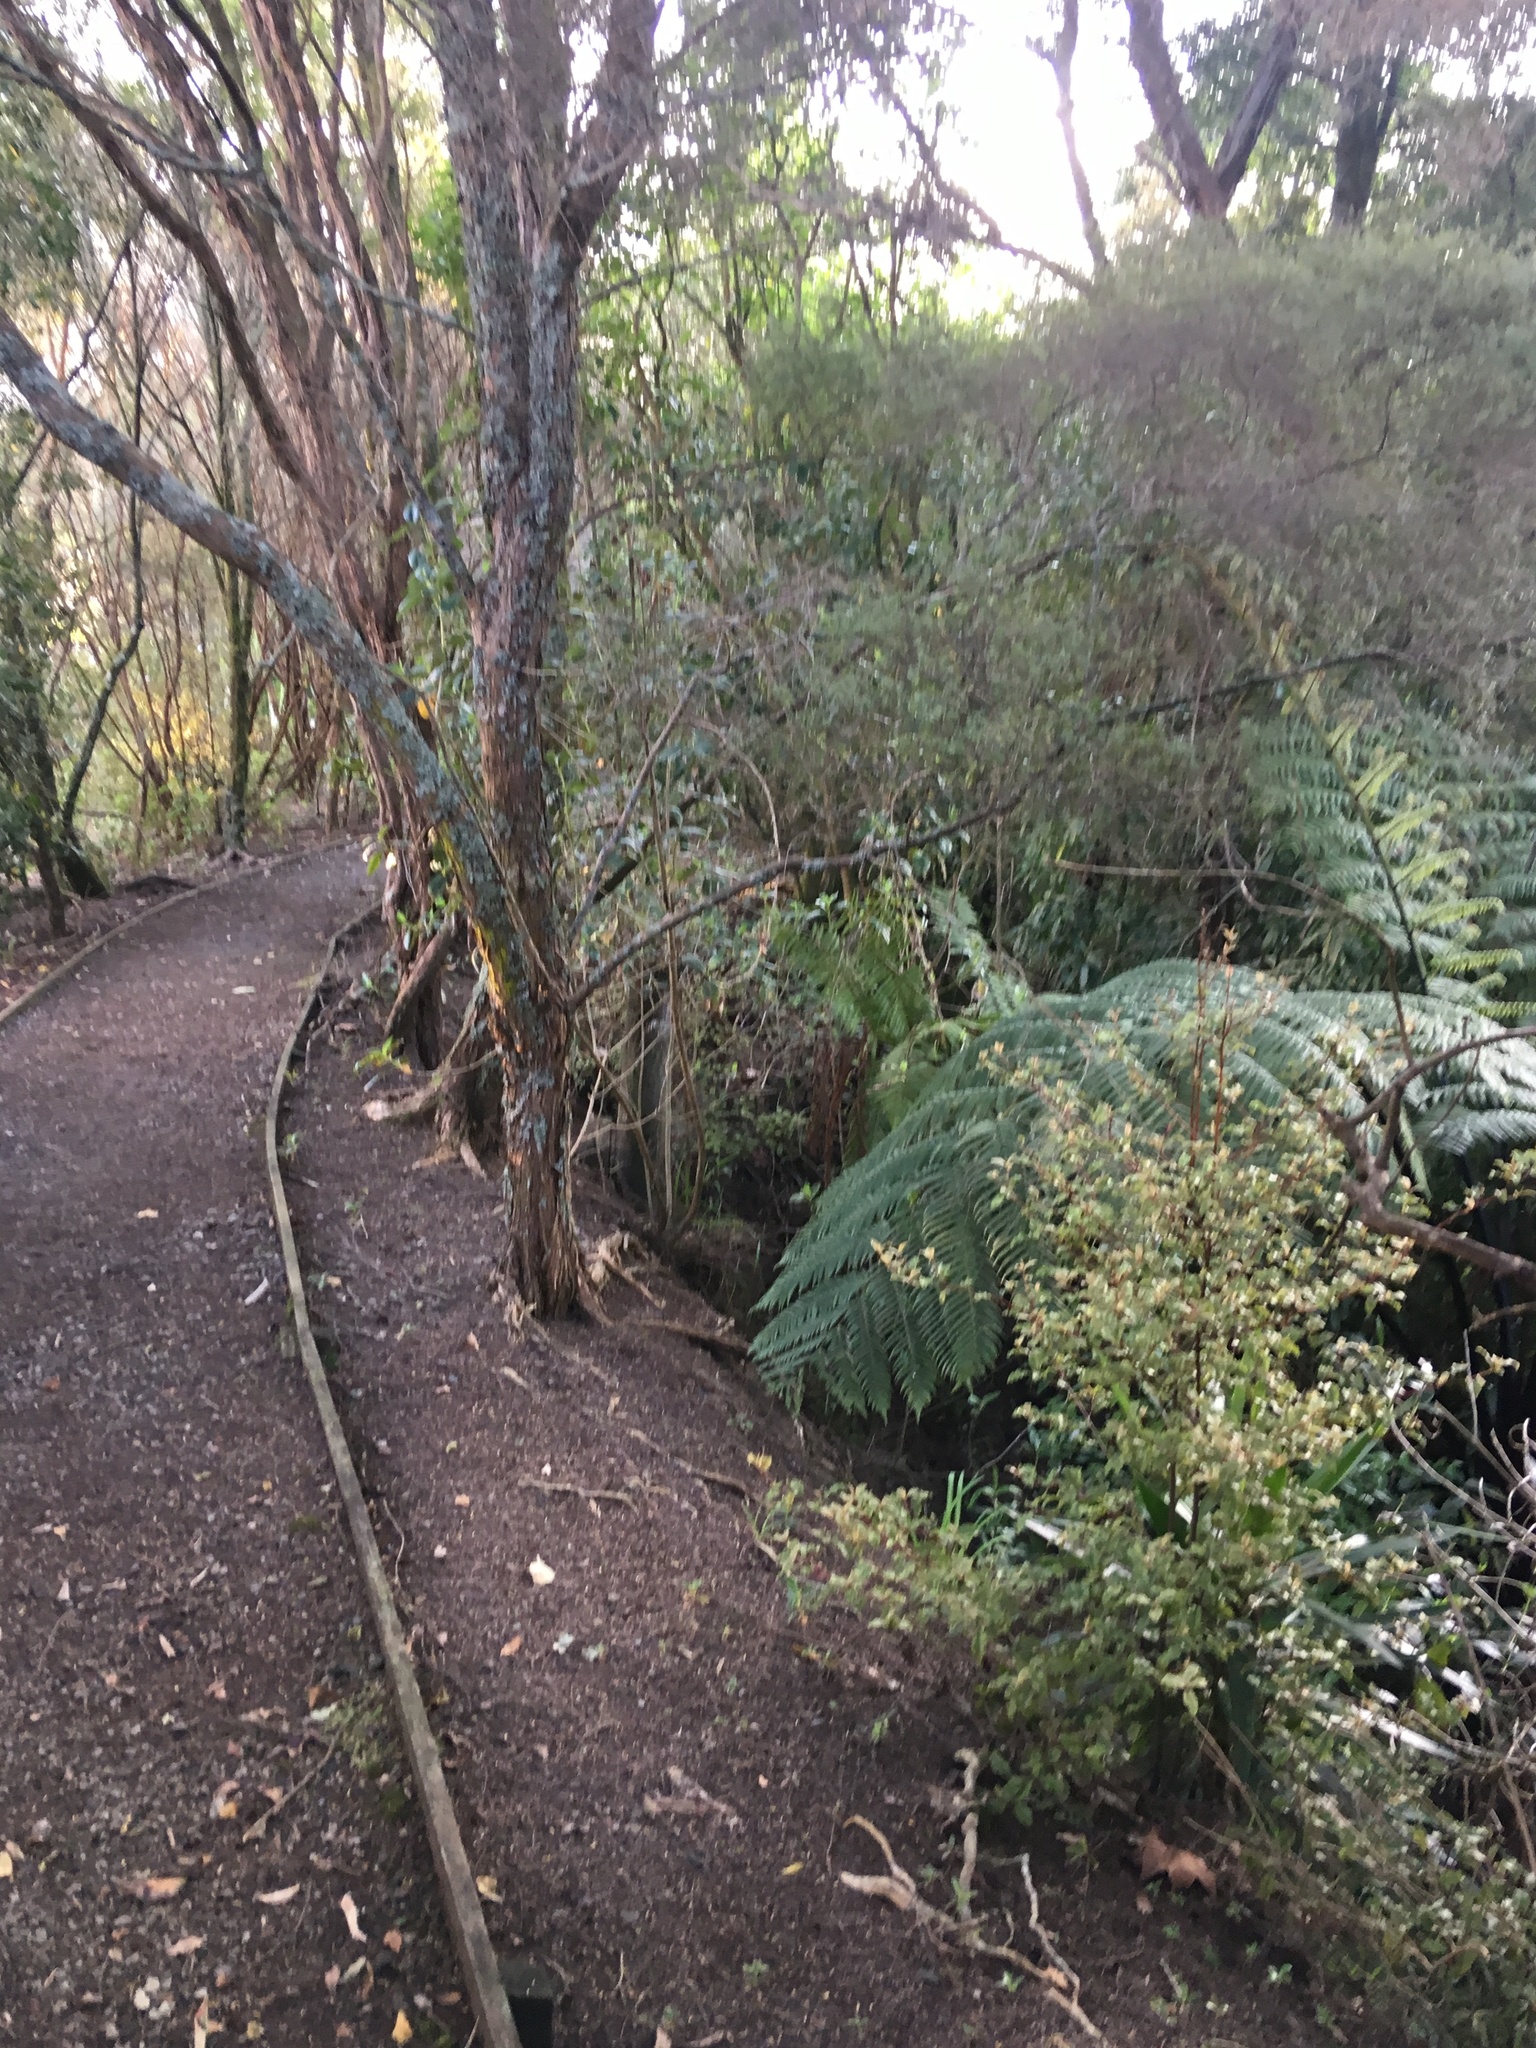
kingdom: Plantae
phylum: Tracheophyta
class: Magnoliopsida
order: Ericales
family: Primulaceae
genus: Myrsine
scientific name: Myrsine australis
